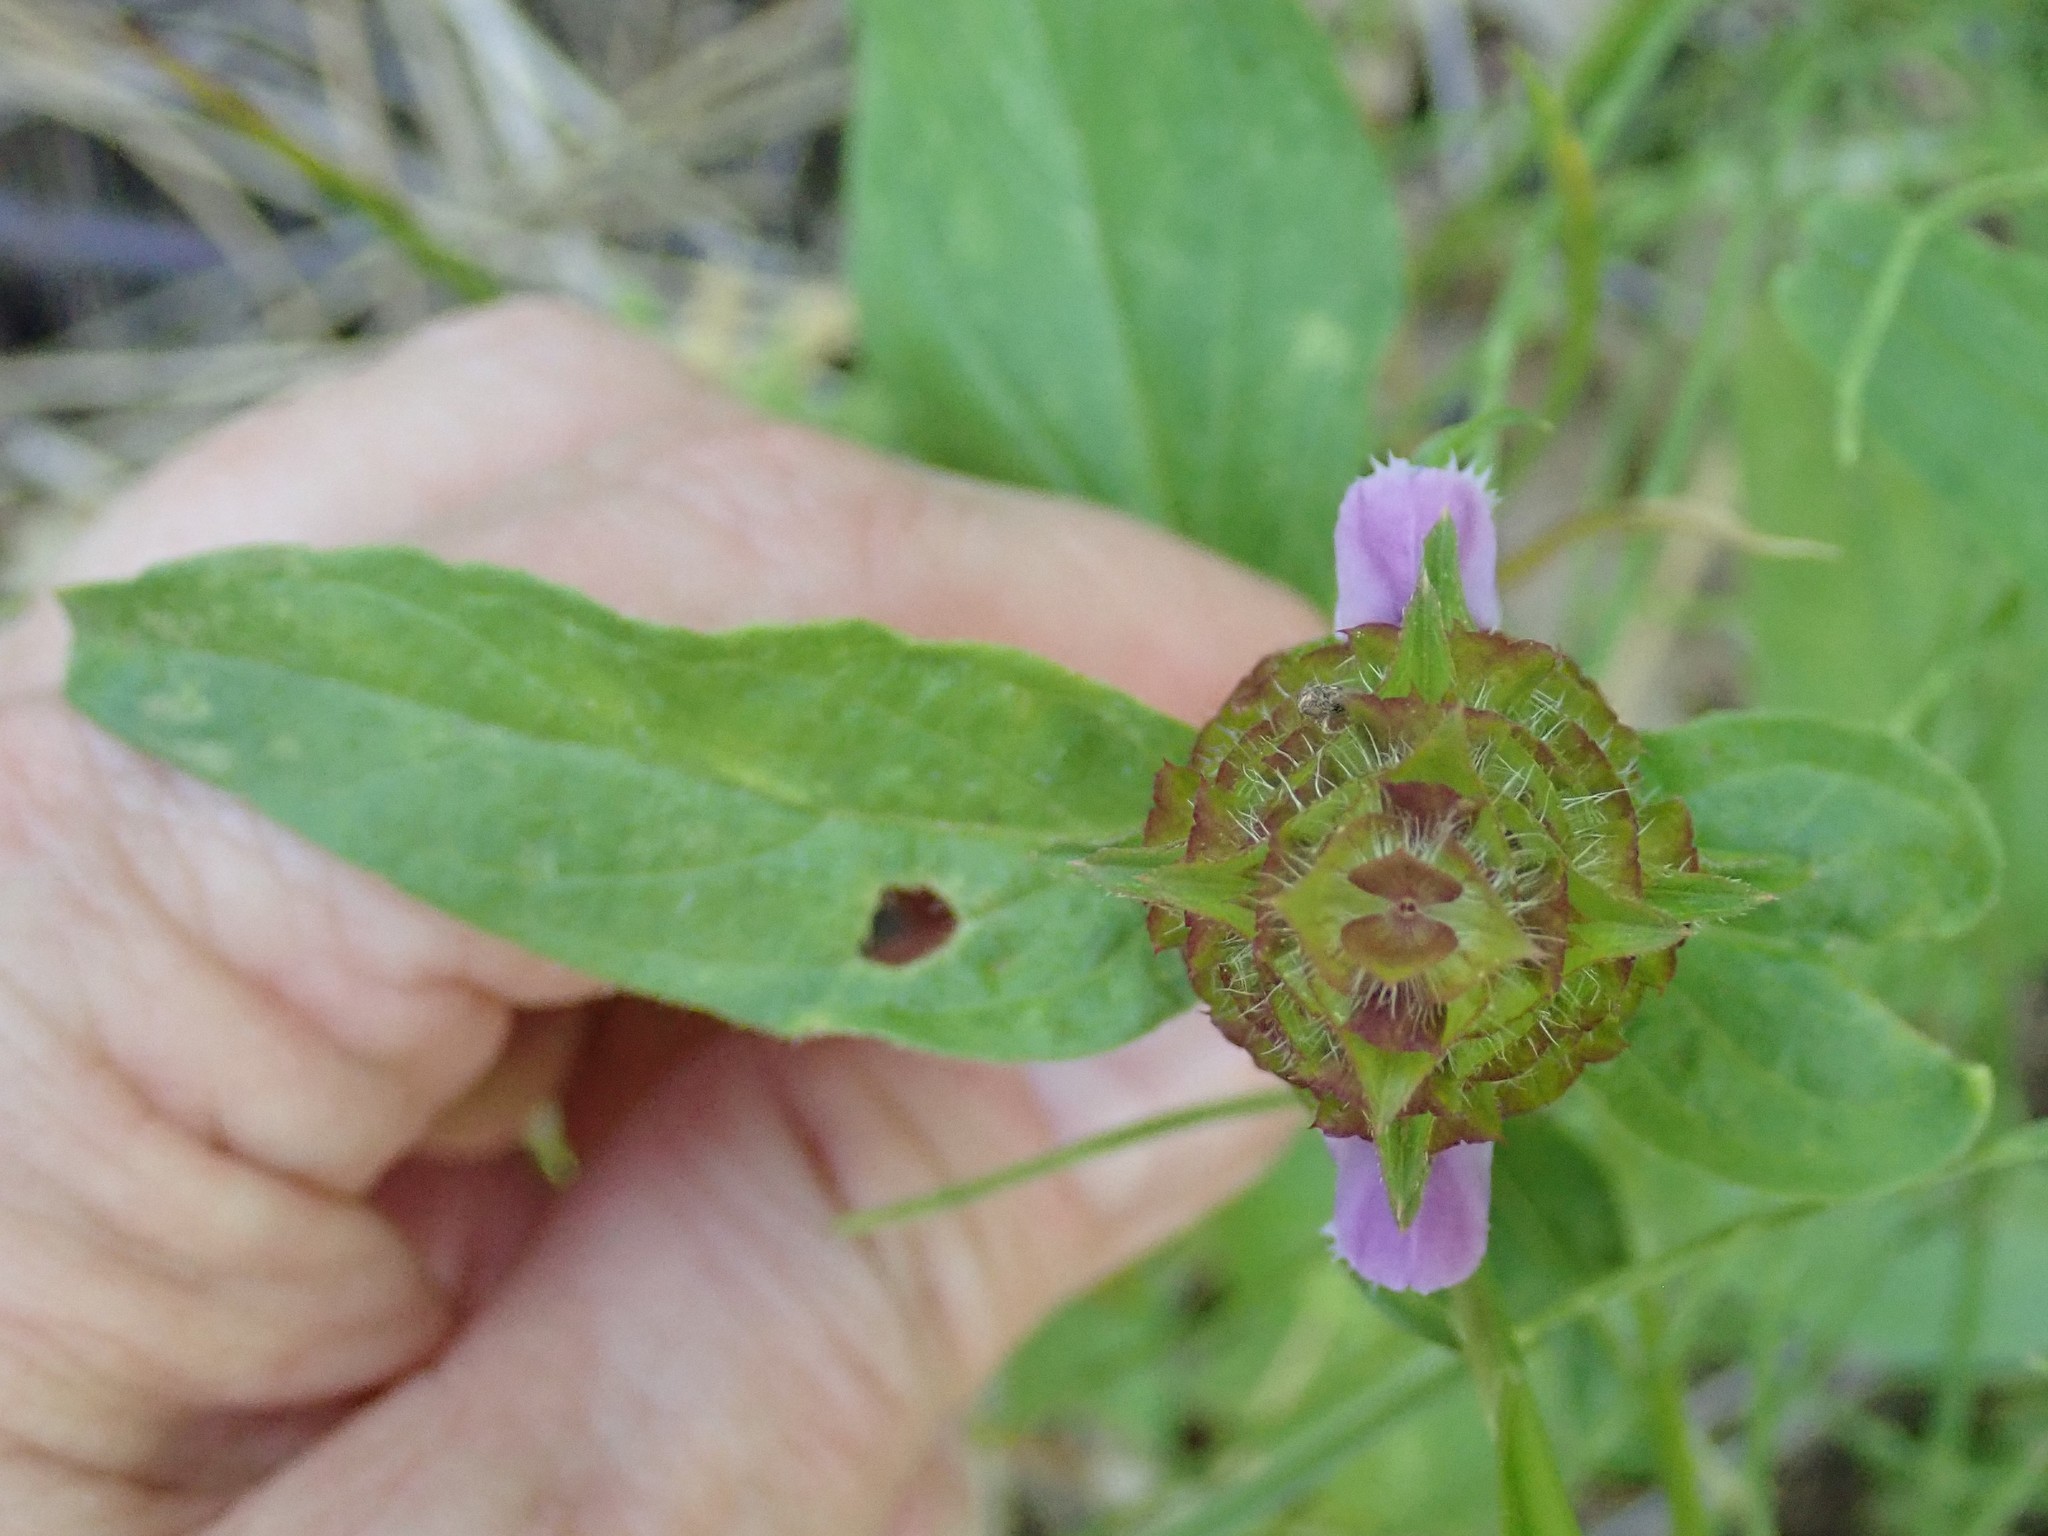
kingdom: Plantae
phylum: Tracheophyta
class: Magnoliopsida
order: Lamiales
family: Lamiaceae
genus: Prunella
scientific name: Prunella vulgaris
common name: Heal-all
